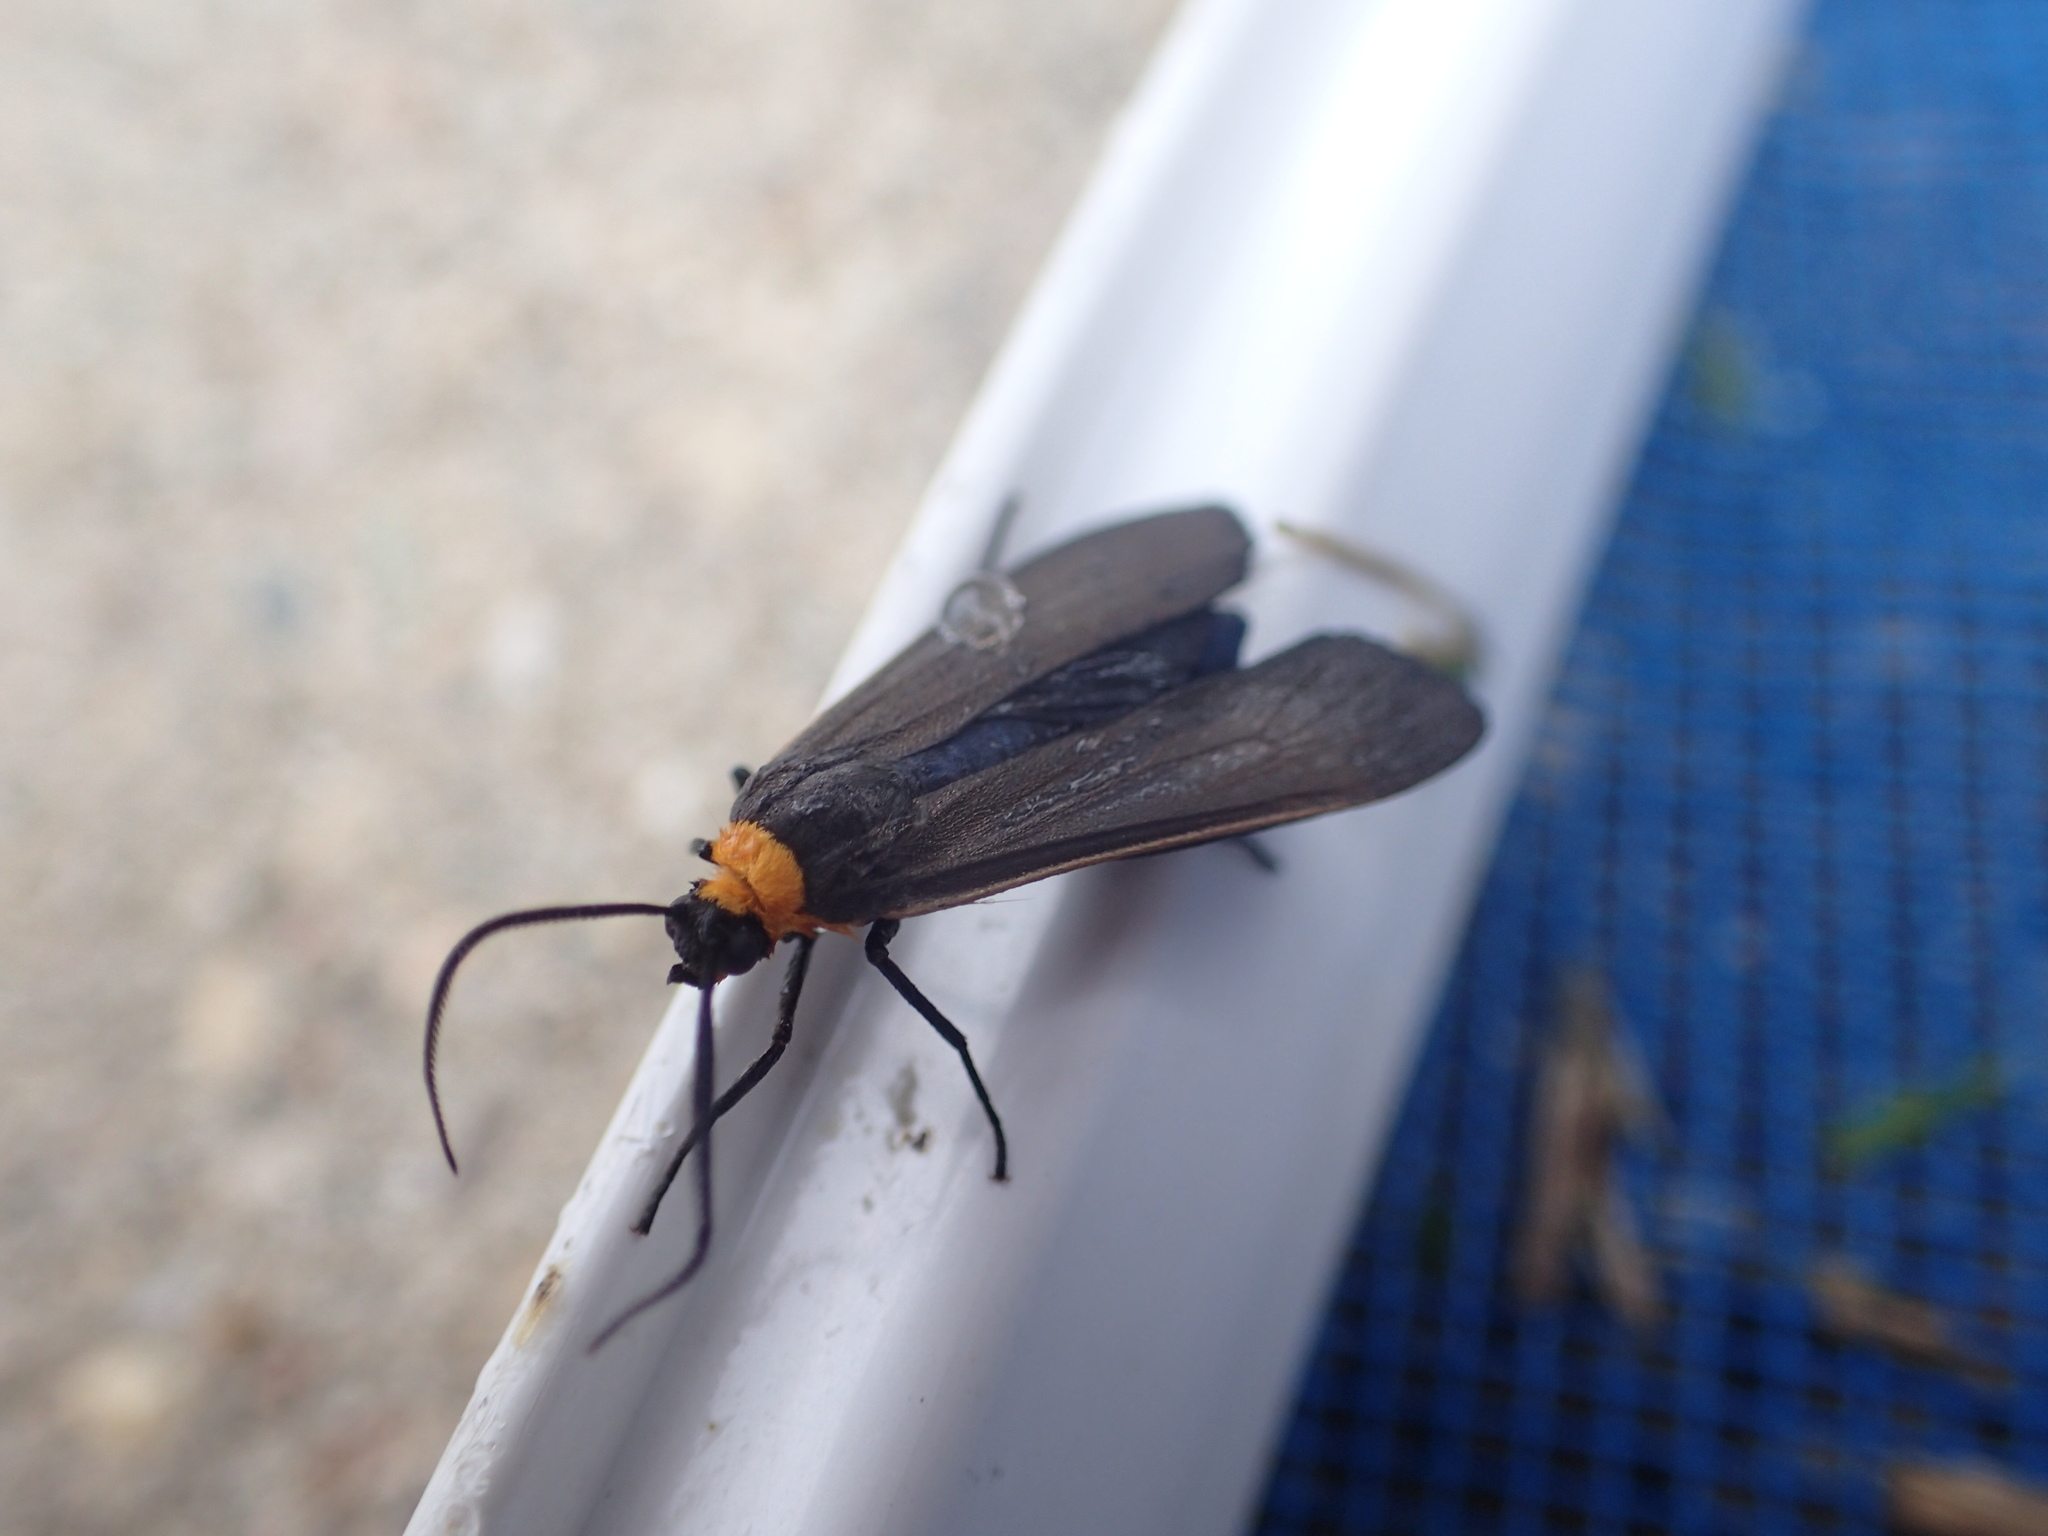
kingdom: Animalia
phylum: Arthropoda
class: Insecta
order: Lepidoptera
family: Erebidae
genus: Cisseps
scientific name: Cisseps fulvicollis
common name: Yellow-collared scape moth
